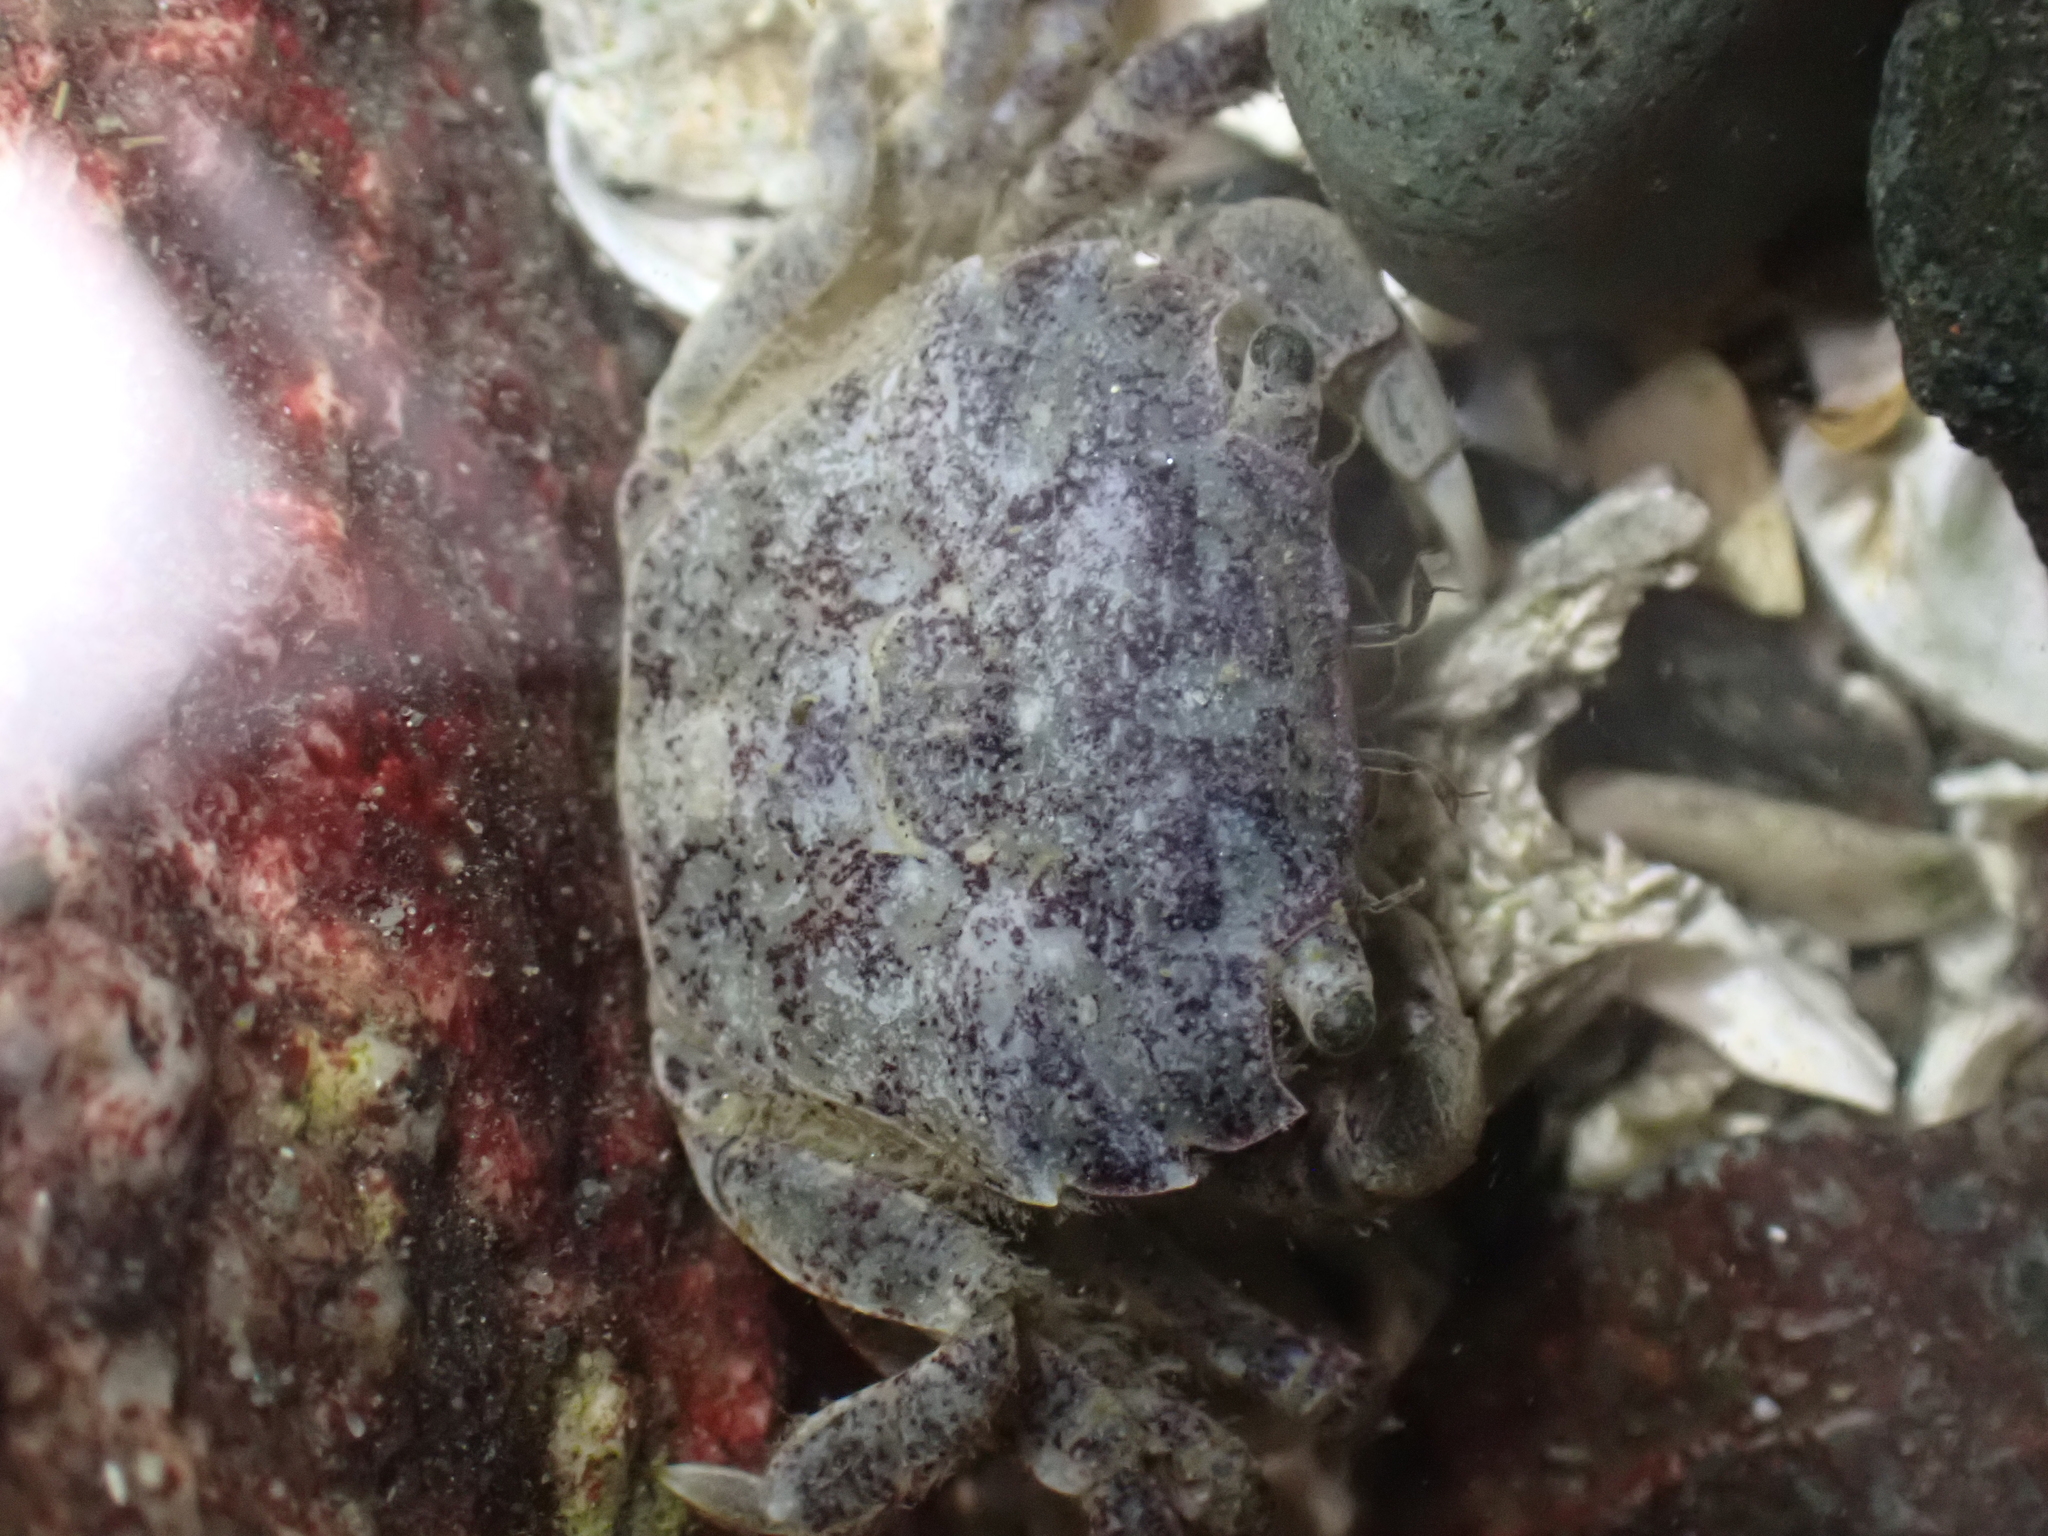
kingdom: Animalia
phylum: Arthropoda
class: Malacostraca
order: Decapoda
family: Varunidae
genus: Hemigrapsus
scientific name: Hemigrapsus oregonensis
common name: Yellow shore crab
